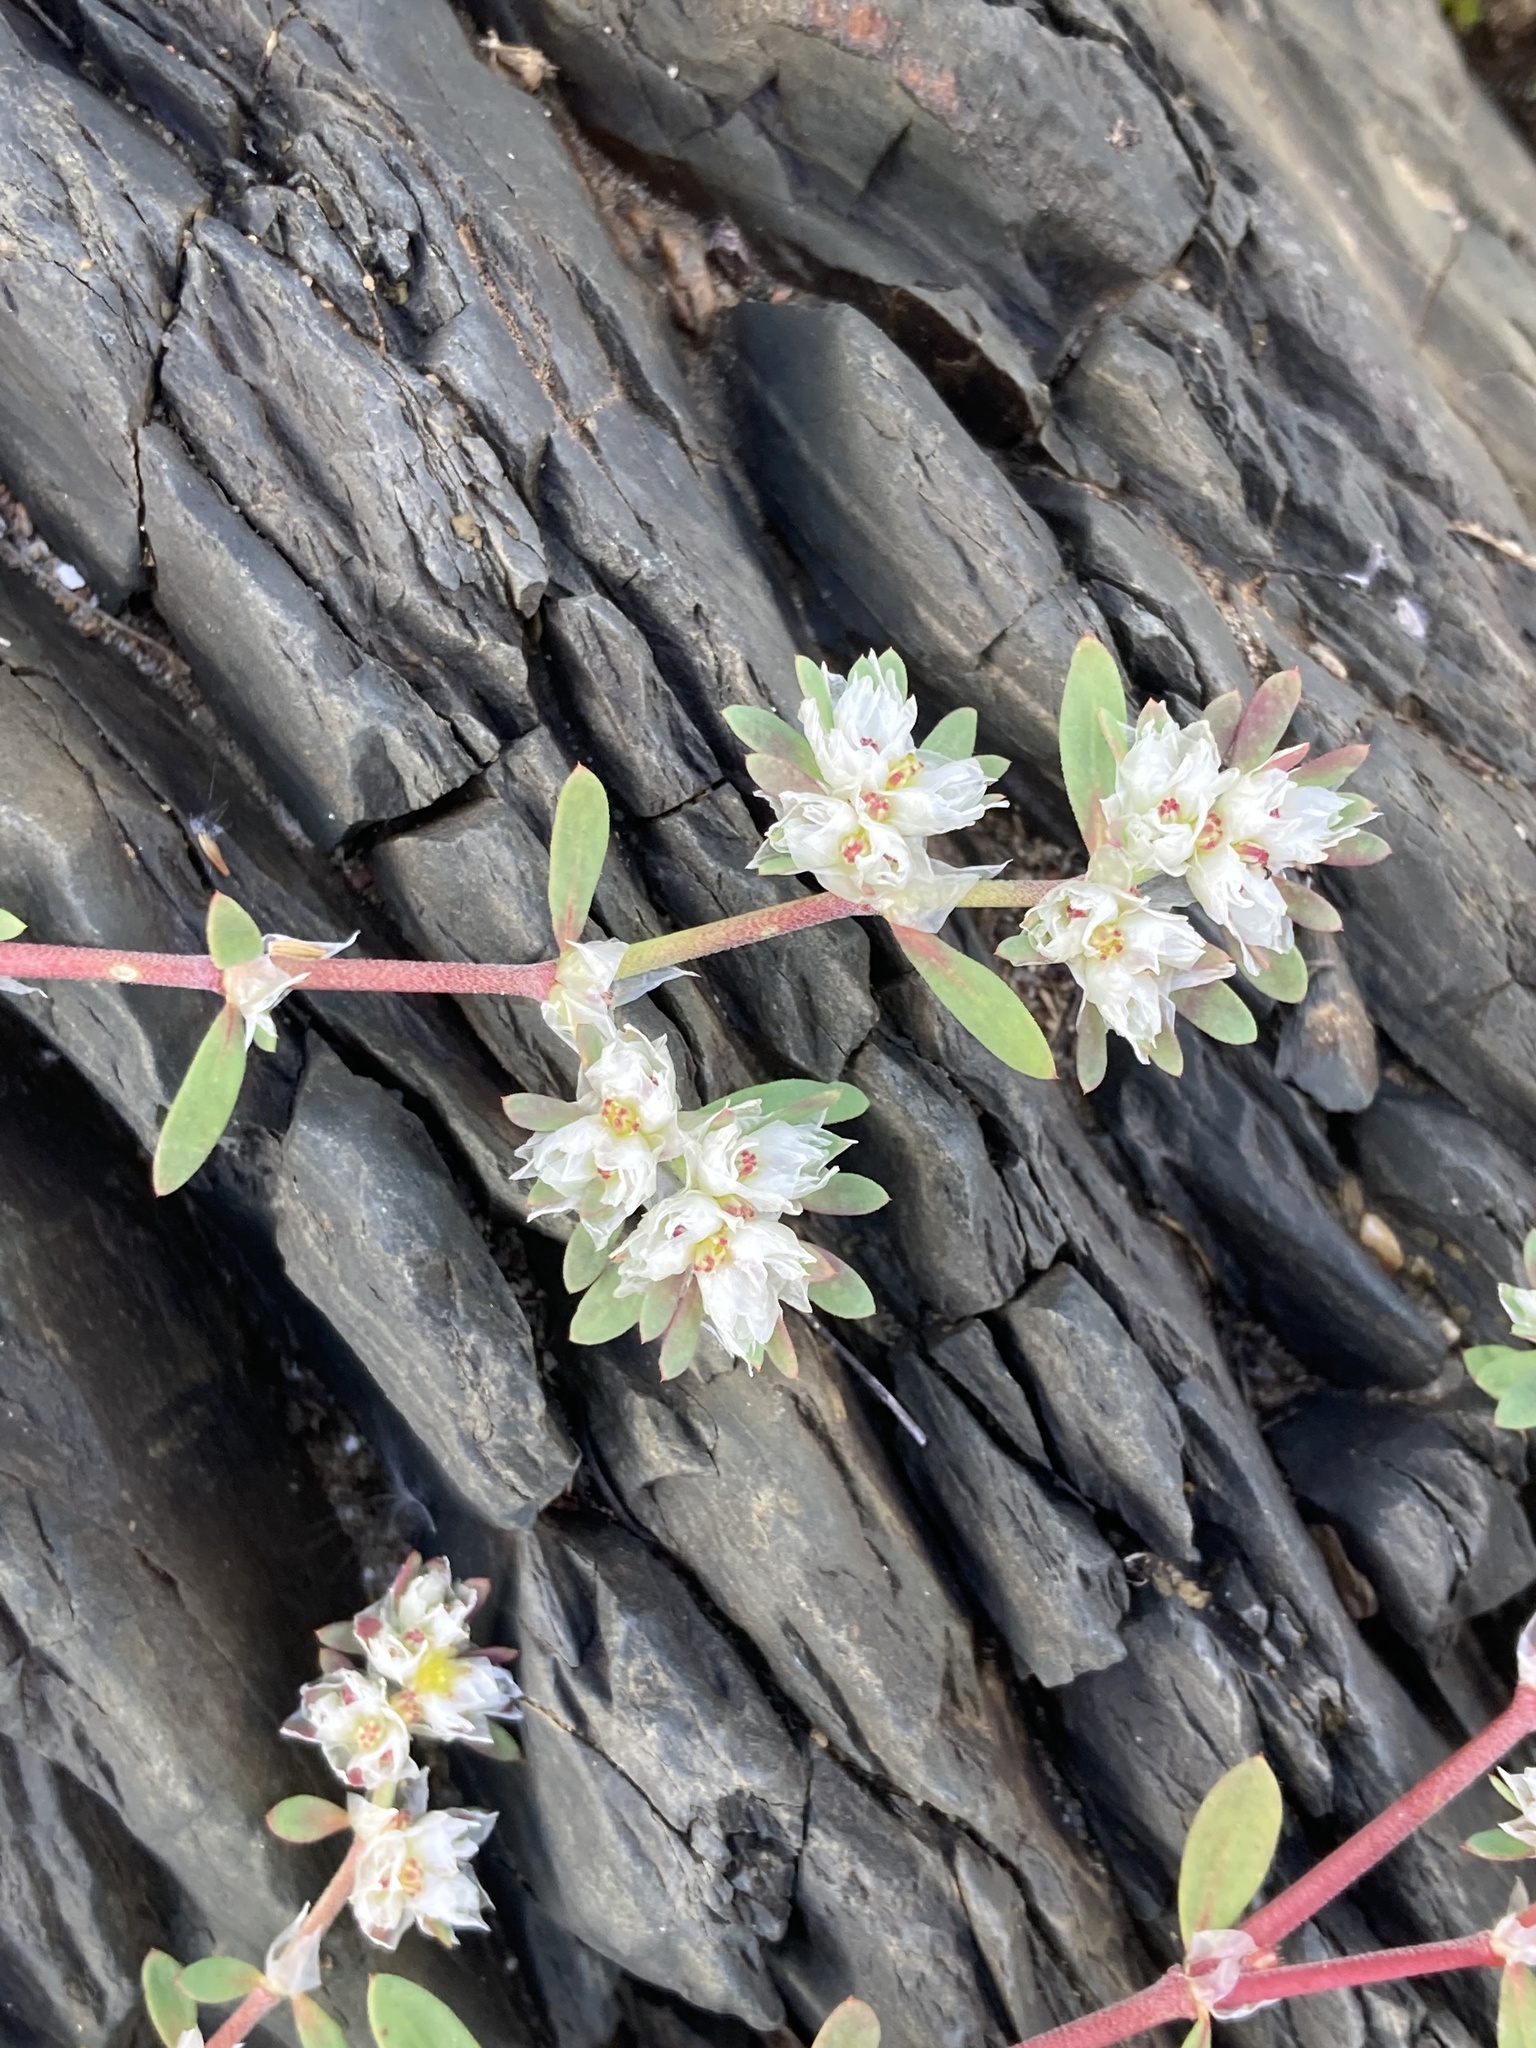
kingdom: Plantae
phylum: Tracheophyta
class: Magnoliopsida
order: Caryophyllales
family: Caryophyllaceae
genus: Paronychia
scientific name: Paronychia argentea
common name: Silver nailroot
